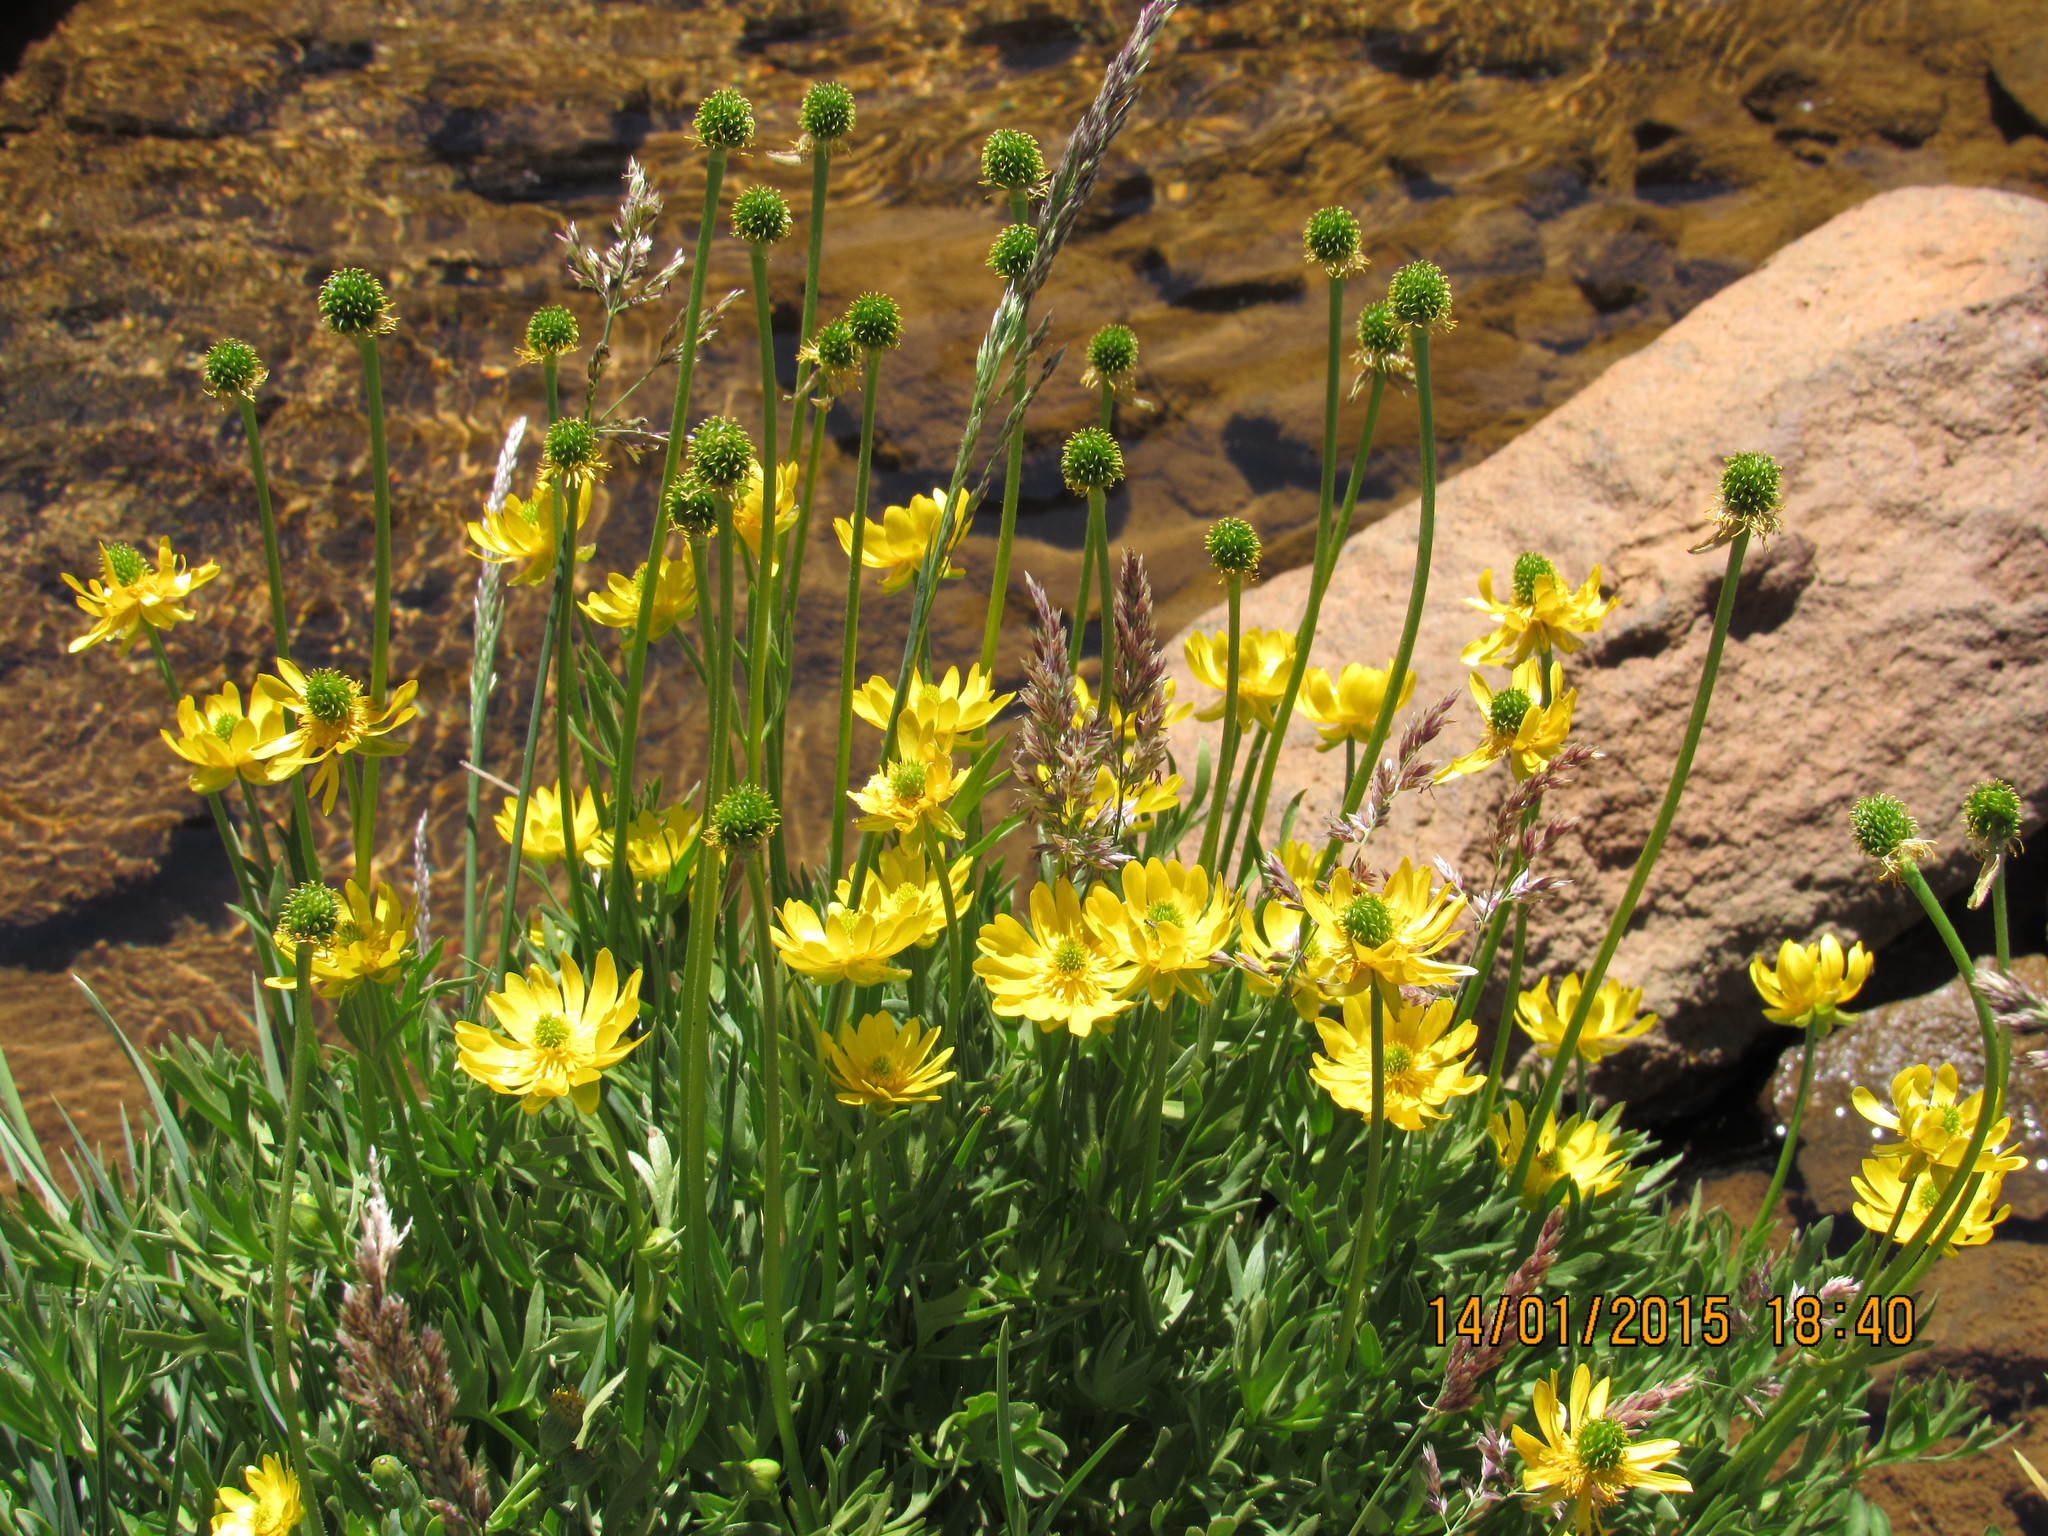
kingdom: Plantae
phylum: Tracheophyta
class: Magnoliopsida
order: Ranunculales
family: Ranunculaceae
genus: Ranunculus
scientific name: Ranunculus peduncularis
